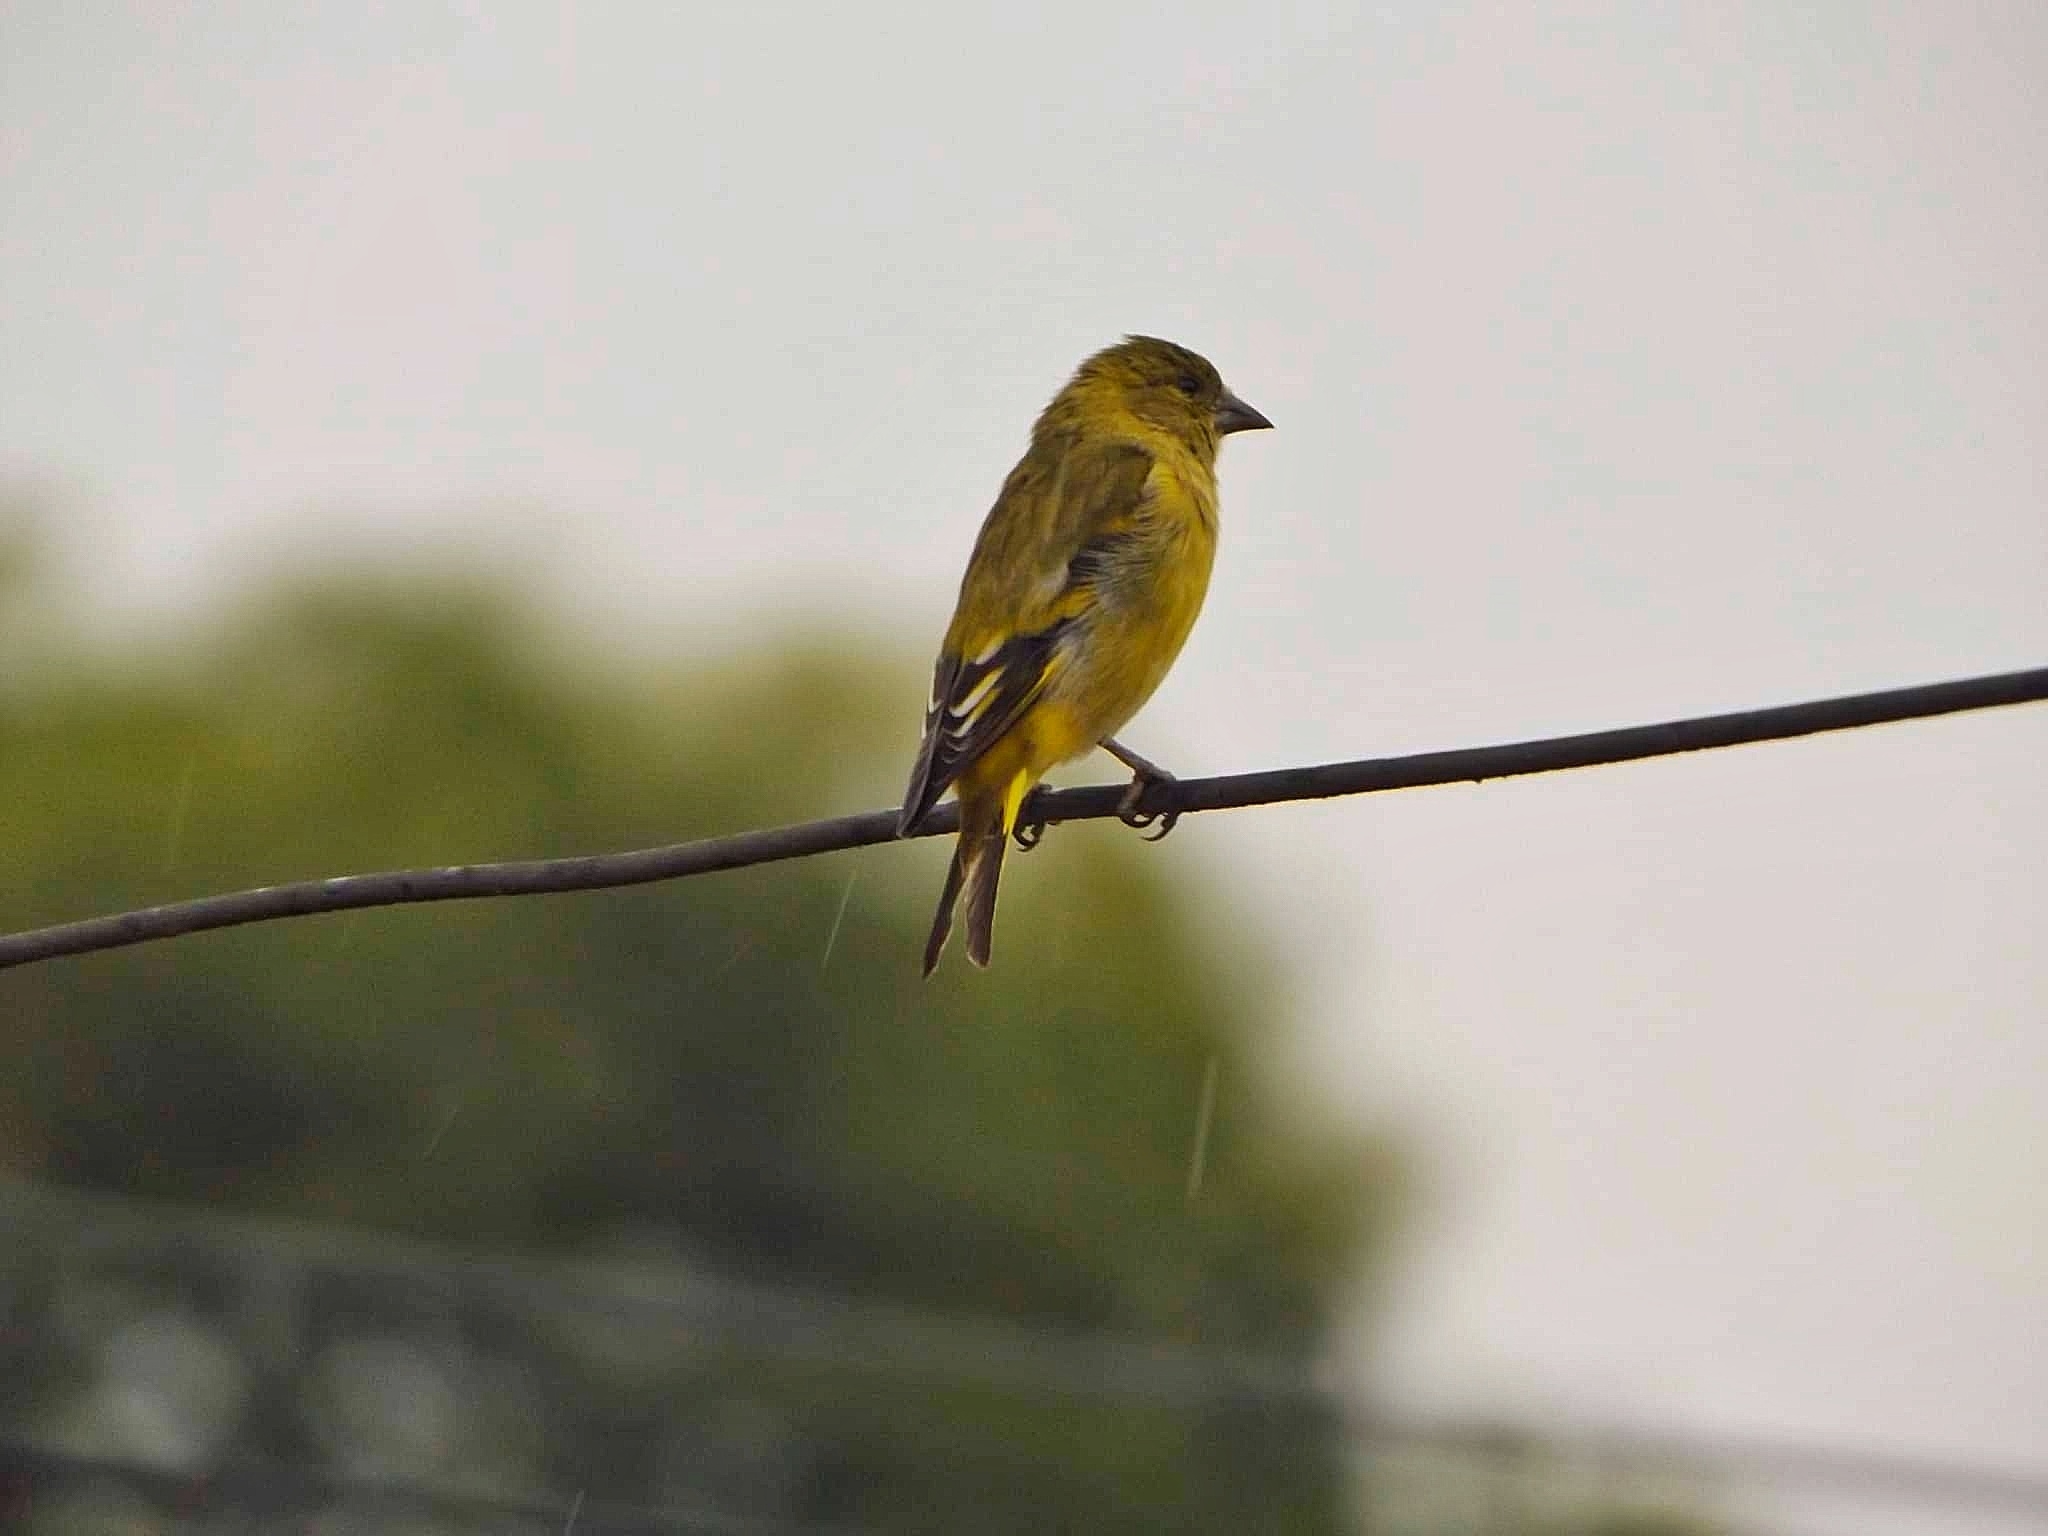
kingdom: Animalia
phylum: Chordata
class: Aves
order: Passeriformes
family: Fringillidae
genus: Spinus
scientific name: Spinus magellanicus
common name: Hooded siskin
